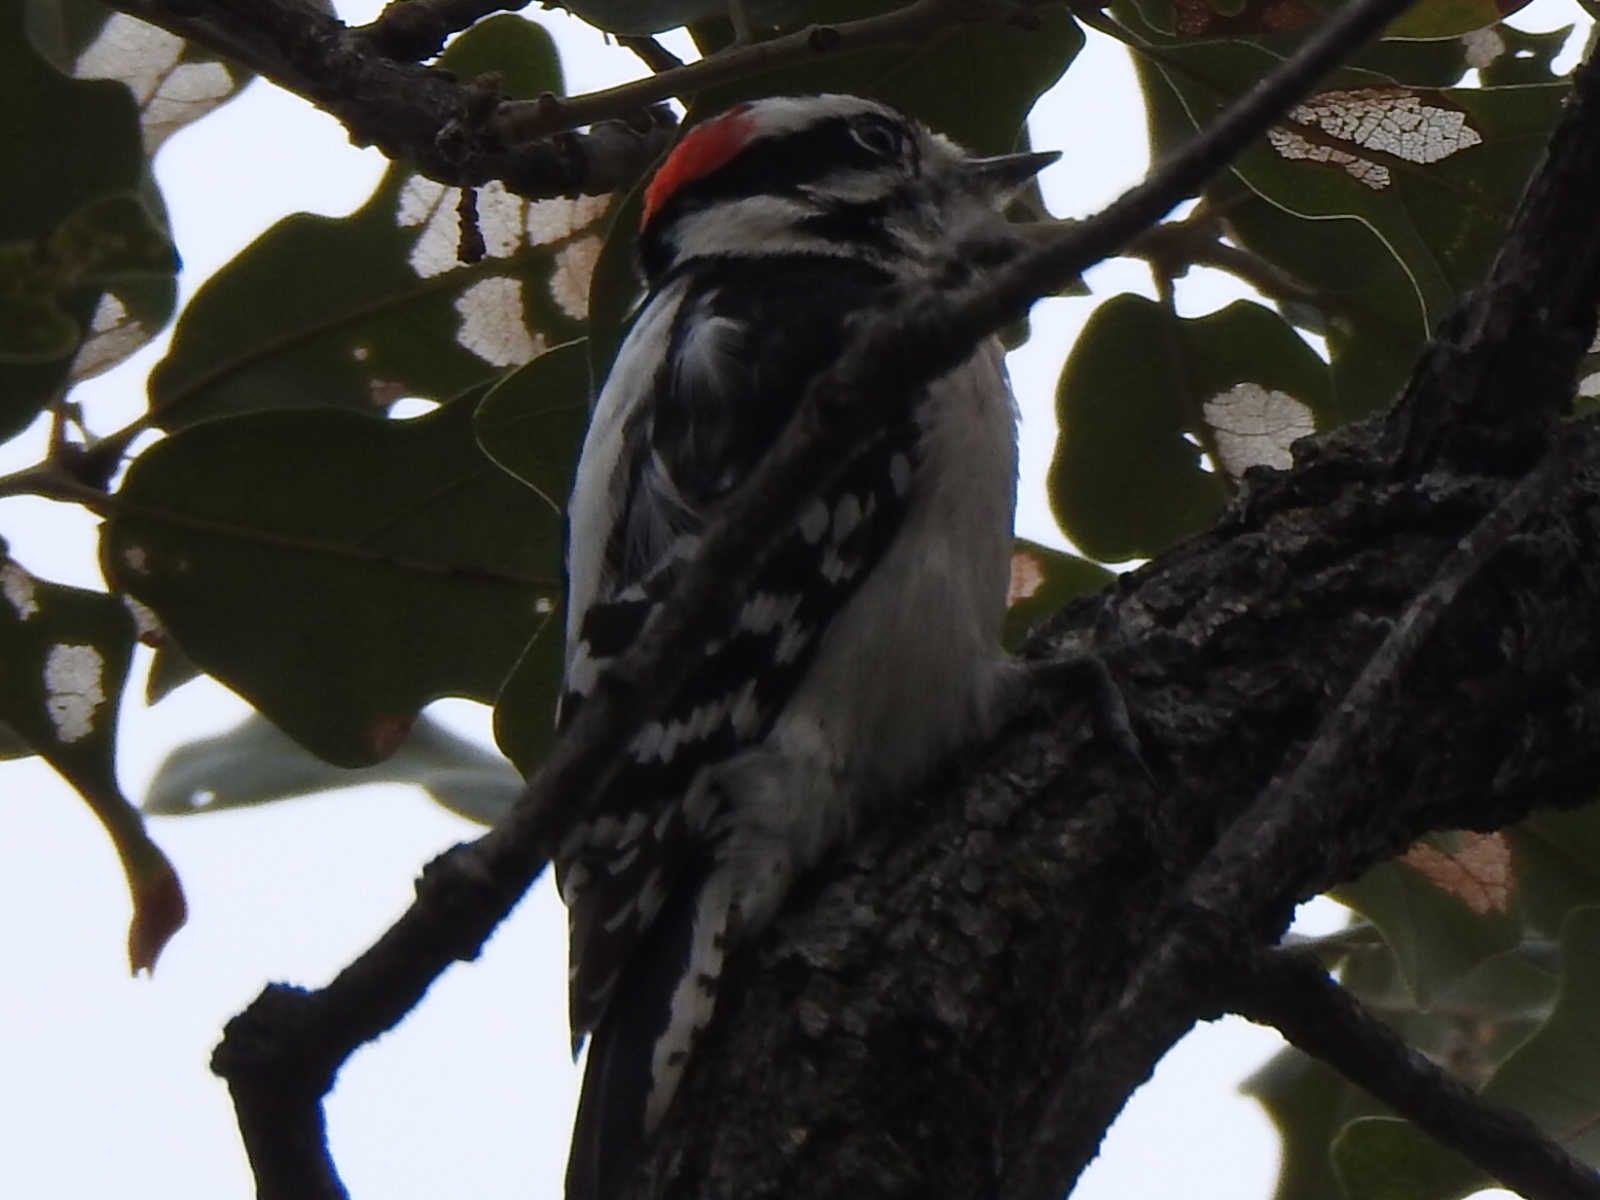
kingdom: Animalia
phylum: Chordata
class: Aves
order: Piciformes
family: Picidae
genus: Dryobates
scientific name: Dryobates pubescens
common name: Downy woodpecker
